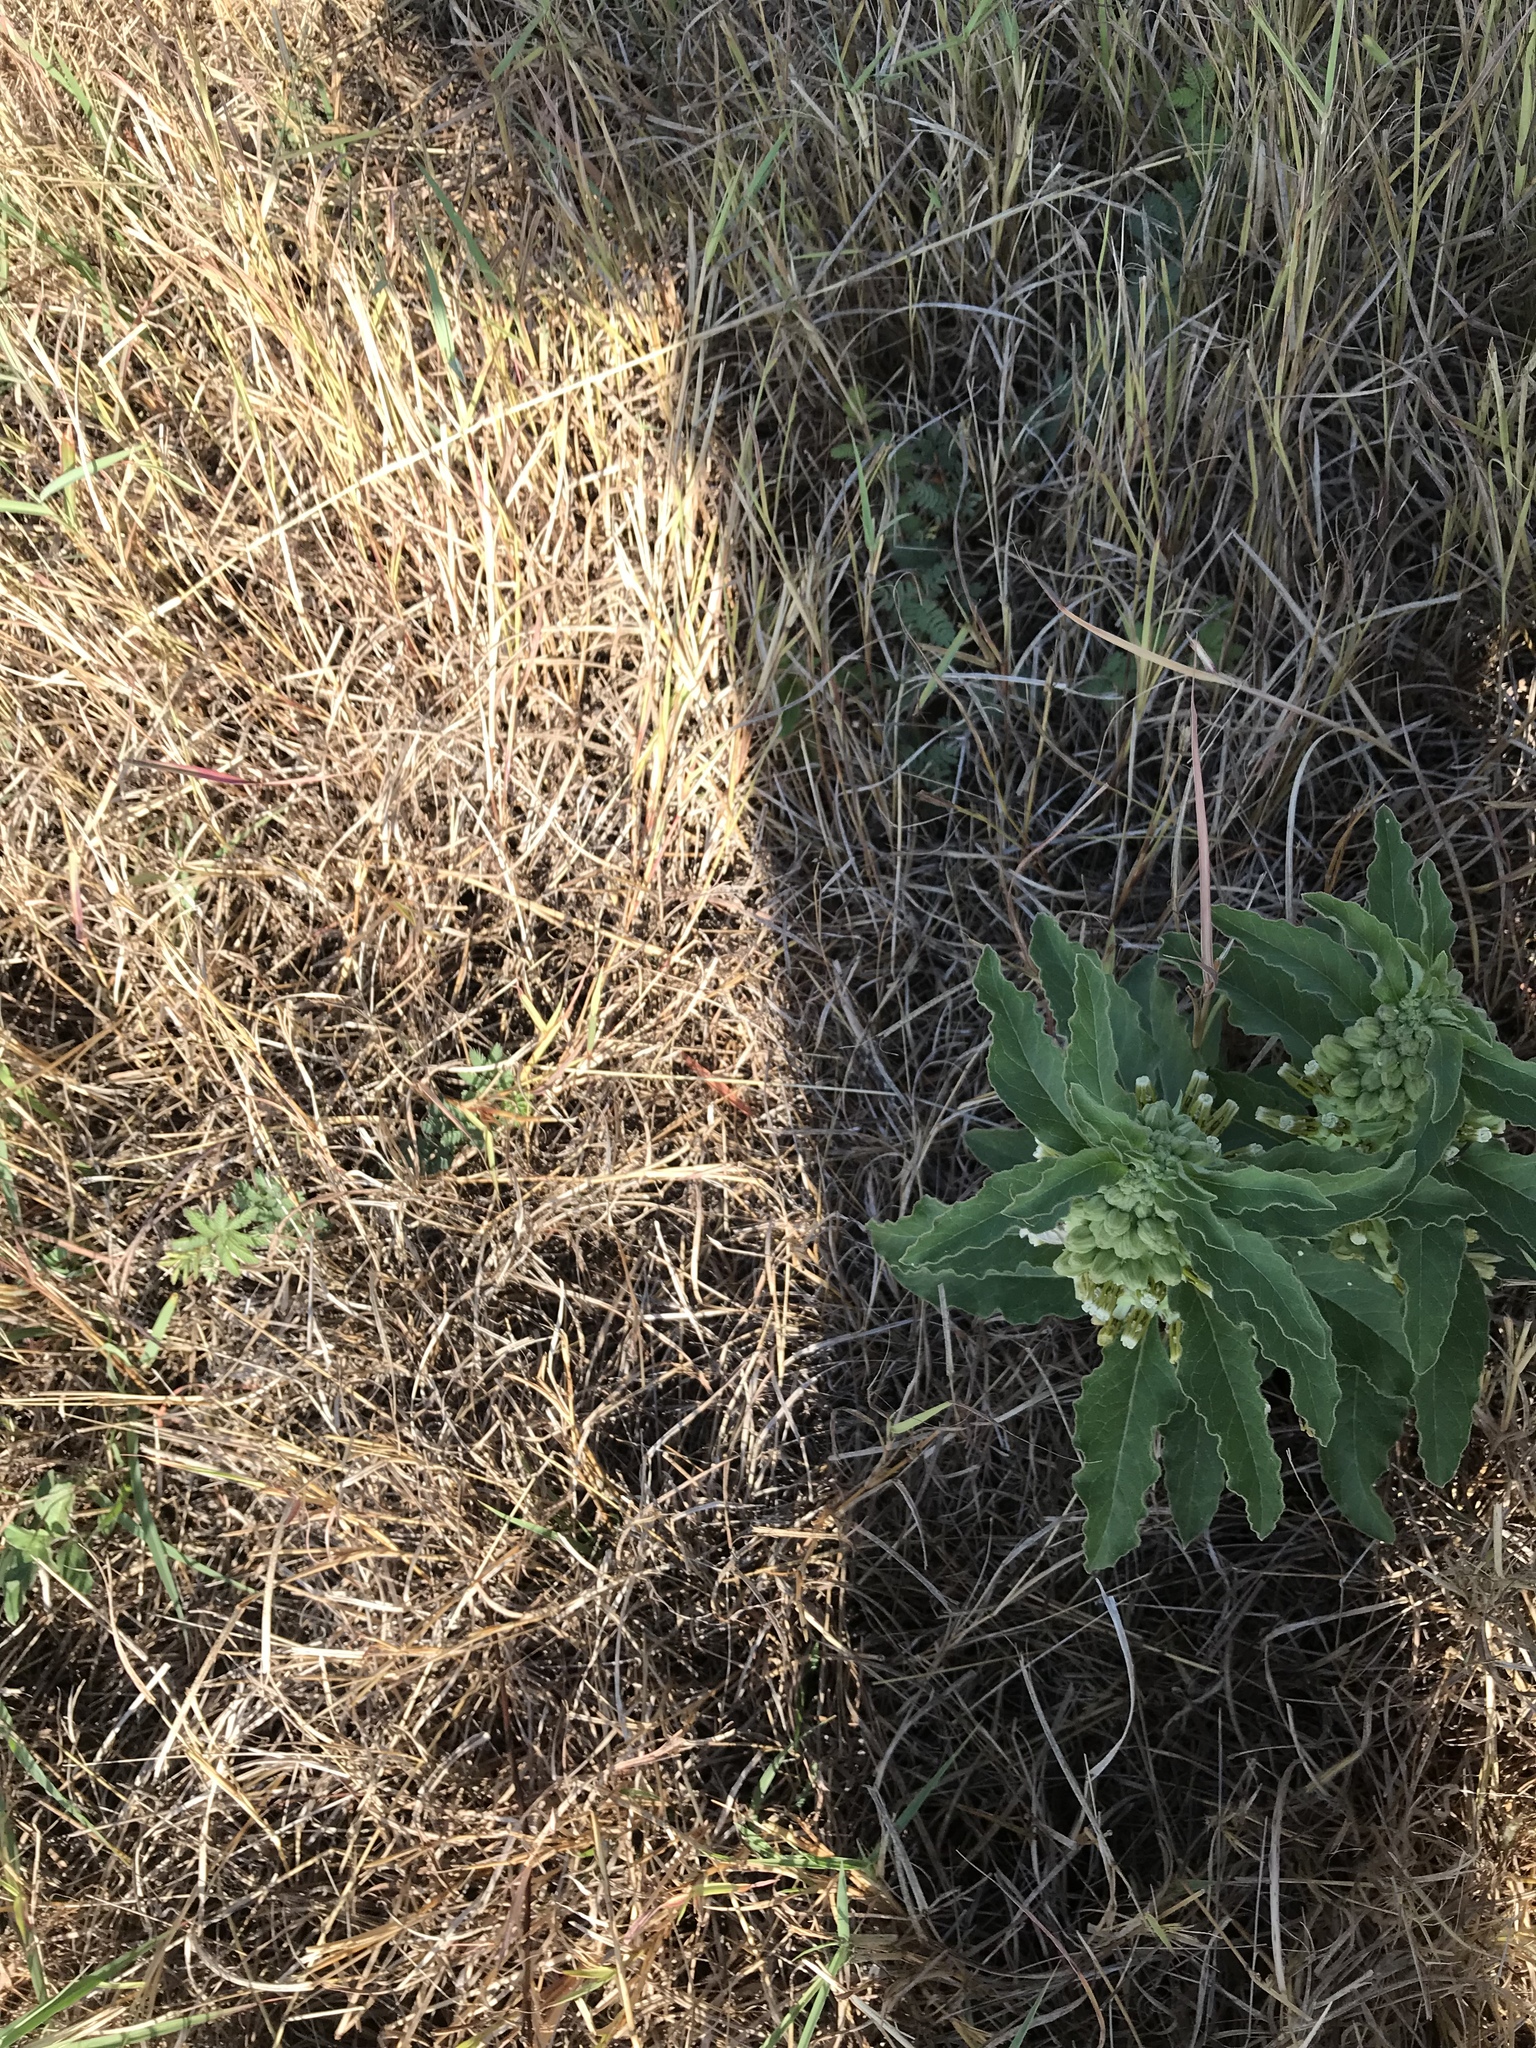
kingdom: Plantae
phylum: Tracheophyta
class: Magnoliopsida
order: Gentianales
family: Apocynaceae
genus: Asclepias
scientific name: Asclepias oenotheroides
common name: Zizotes milkweed
